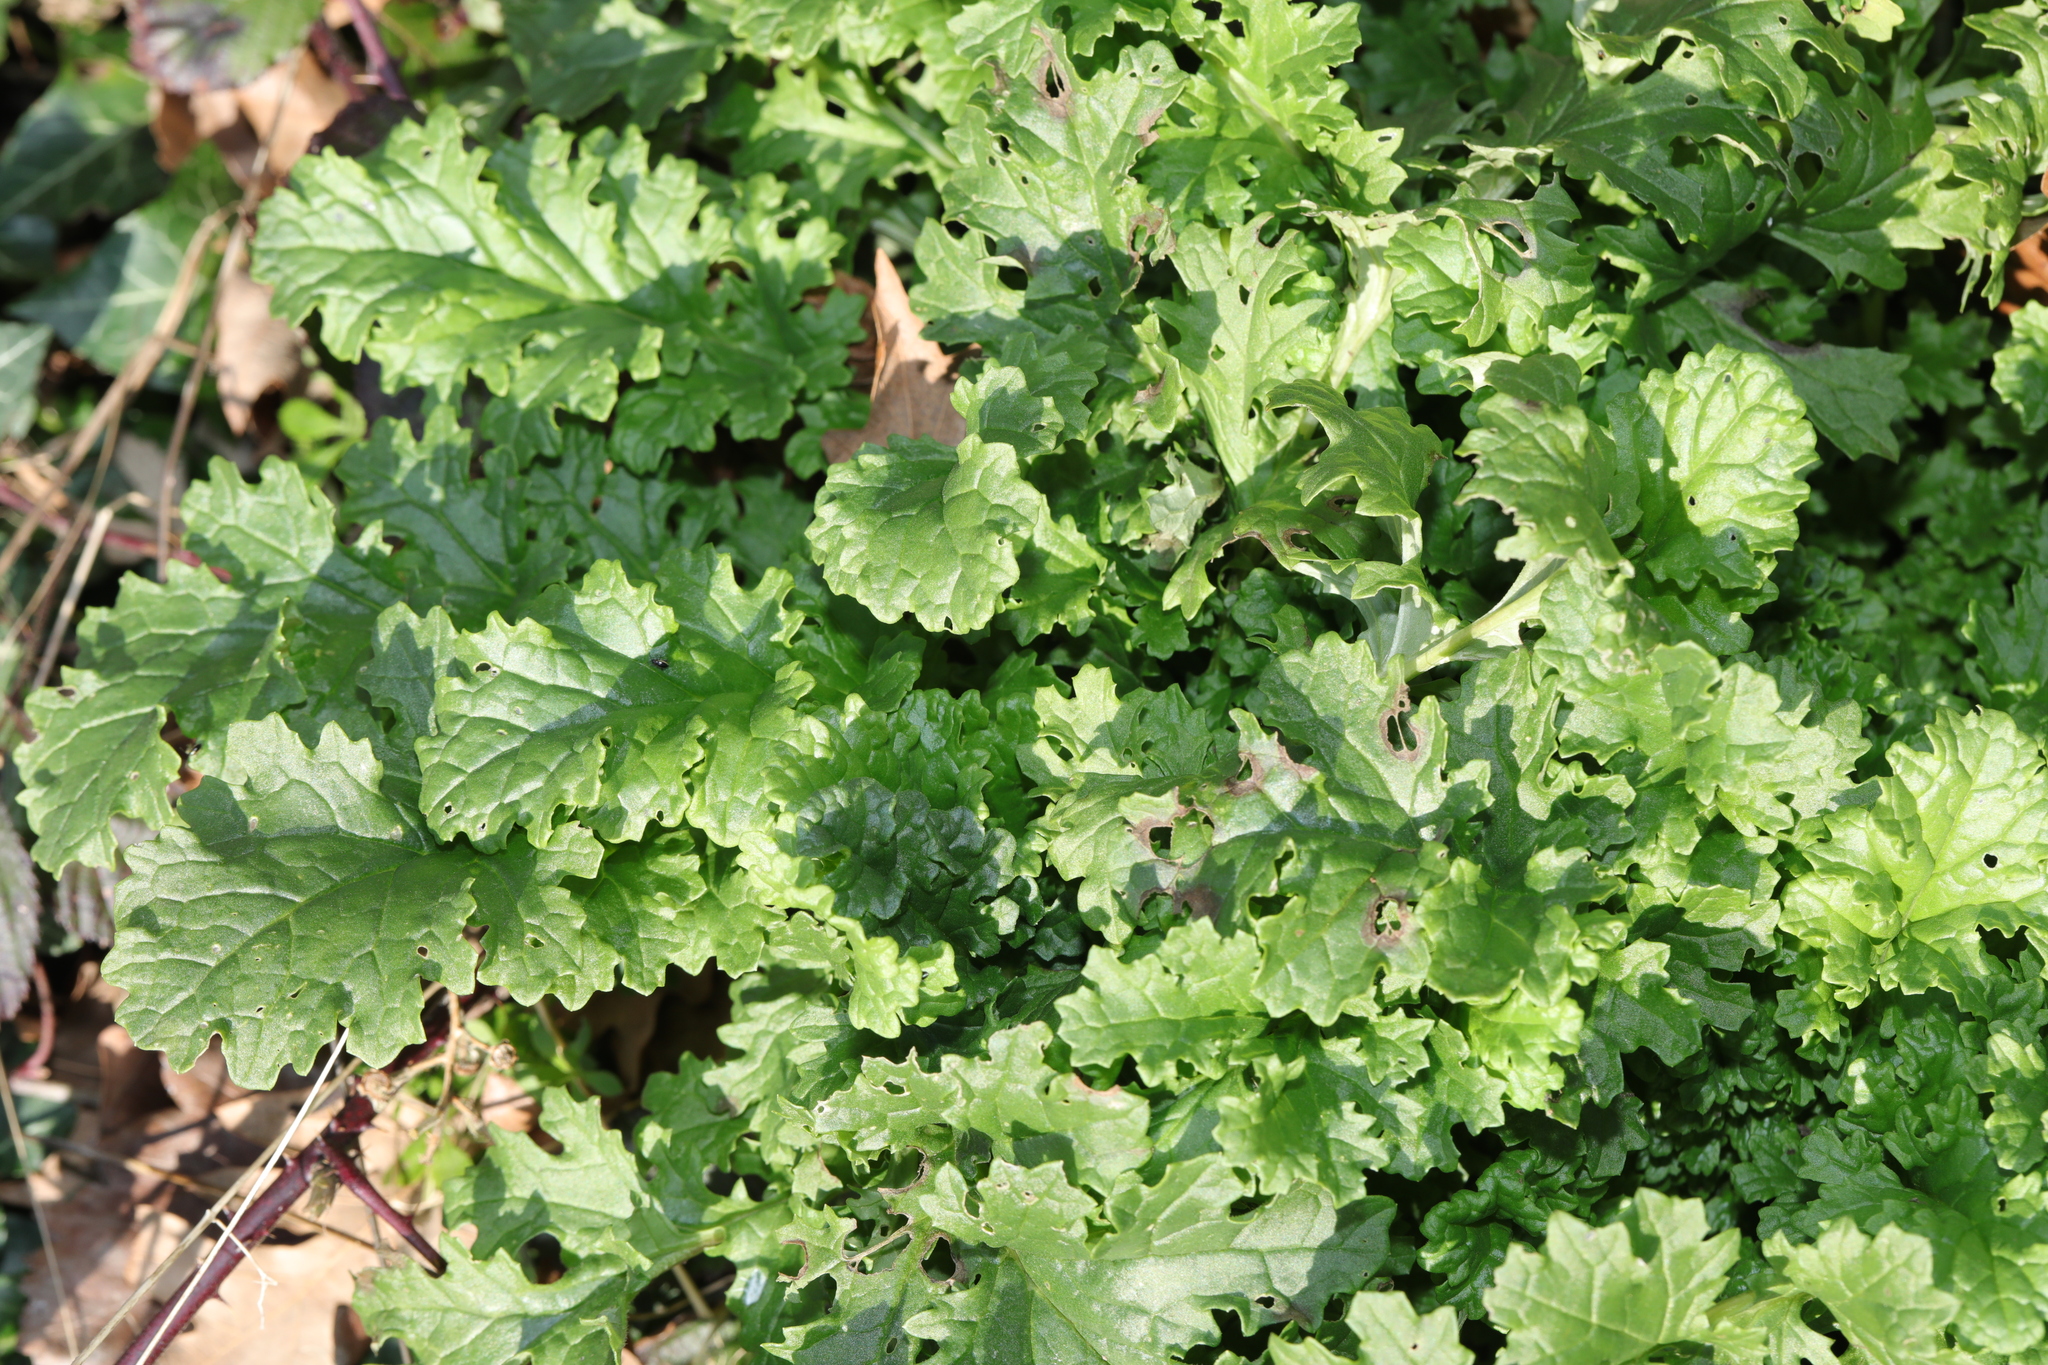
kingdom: Plantae
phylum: Tracheophyta
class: Magnoliopsida
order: Asterales
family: Asteraceae
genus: Jacobaea
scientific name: Jacobaea vulgaris
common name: Stinking willie
